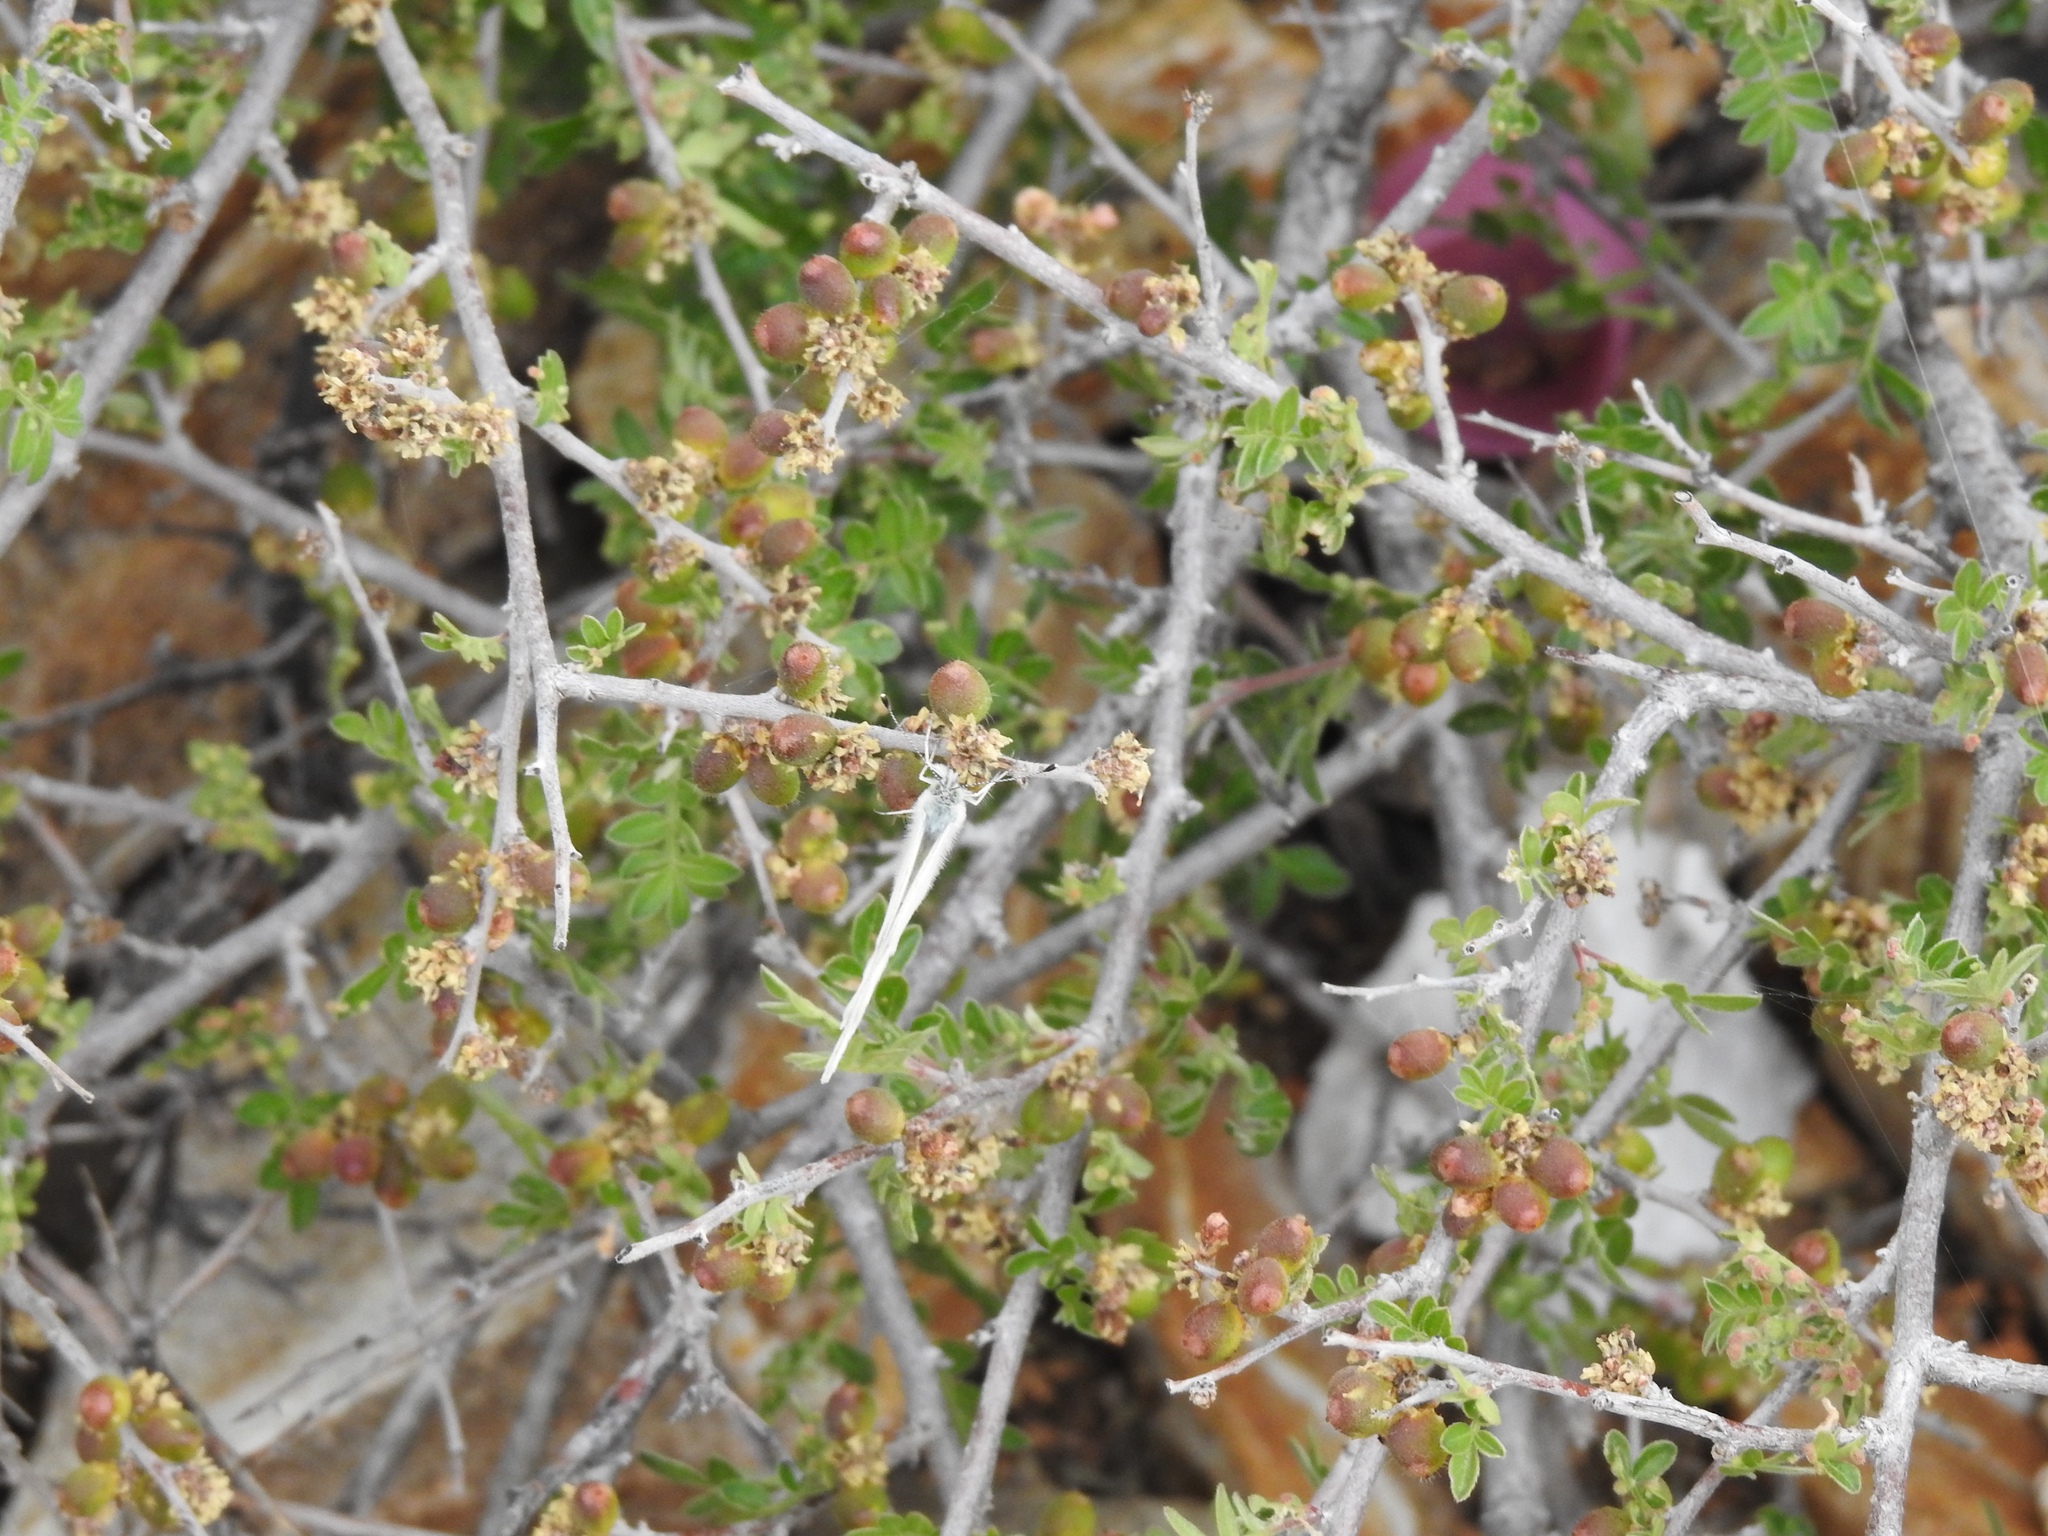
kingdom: Plantae
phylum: Tracheophyta
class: Magnoliopsida
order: Sapindales
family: Anacardiaceae
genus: Rhus
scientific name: Rhus microphylla
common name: Desert sumac
